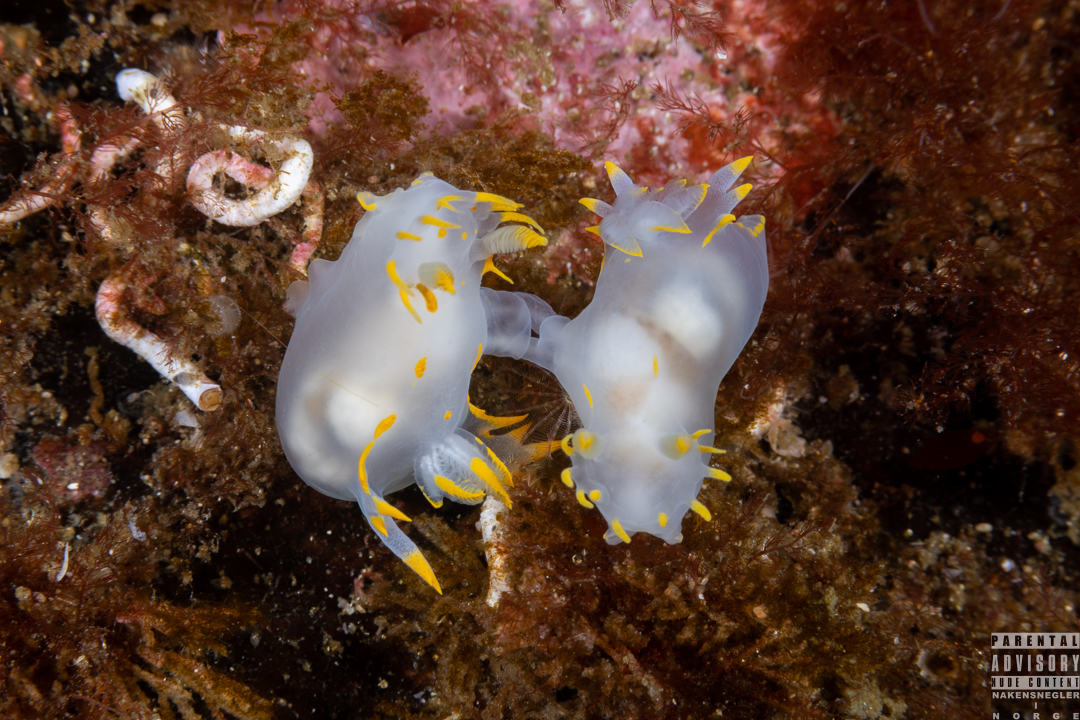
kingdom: Animalia
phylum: Mollusca
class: Gastropoda
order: Nudibranchia
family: Polyceridae
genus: Polycera
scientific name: Polycera faeroensis
